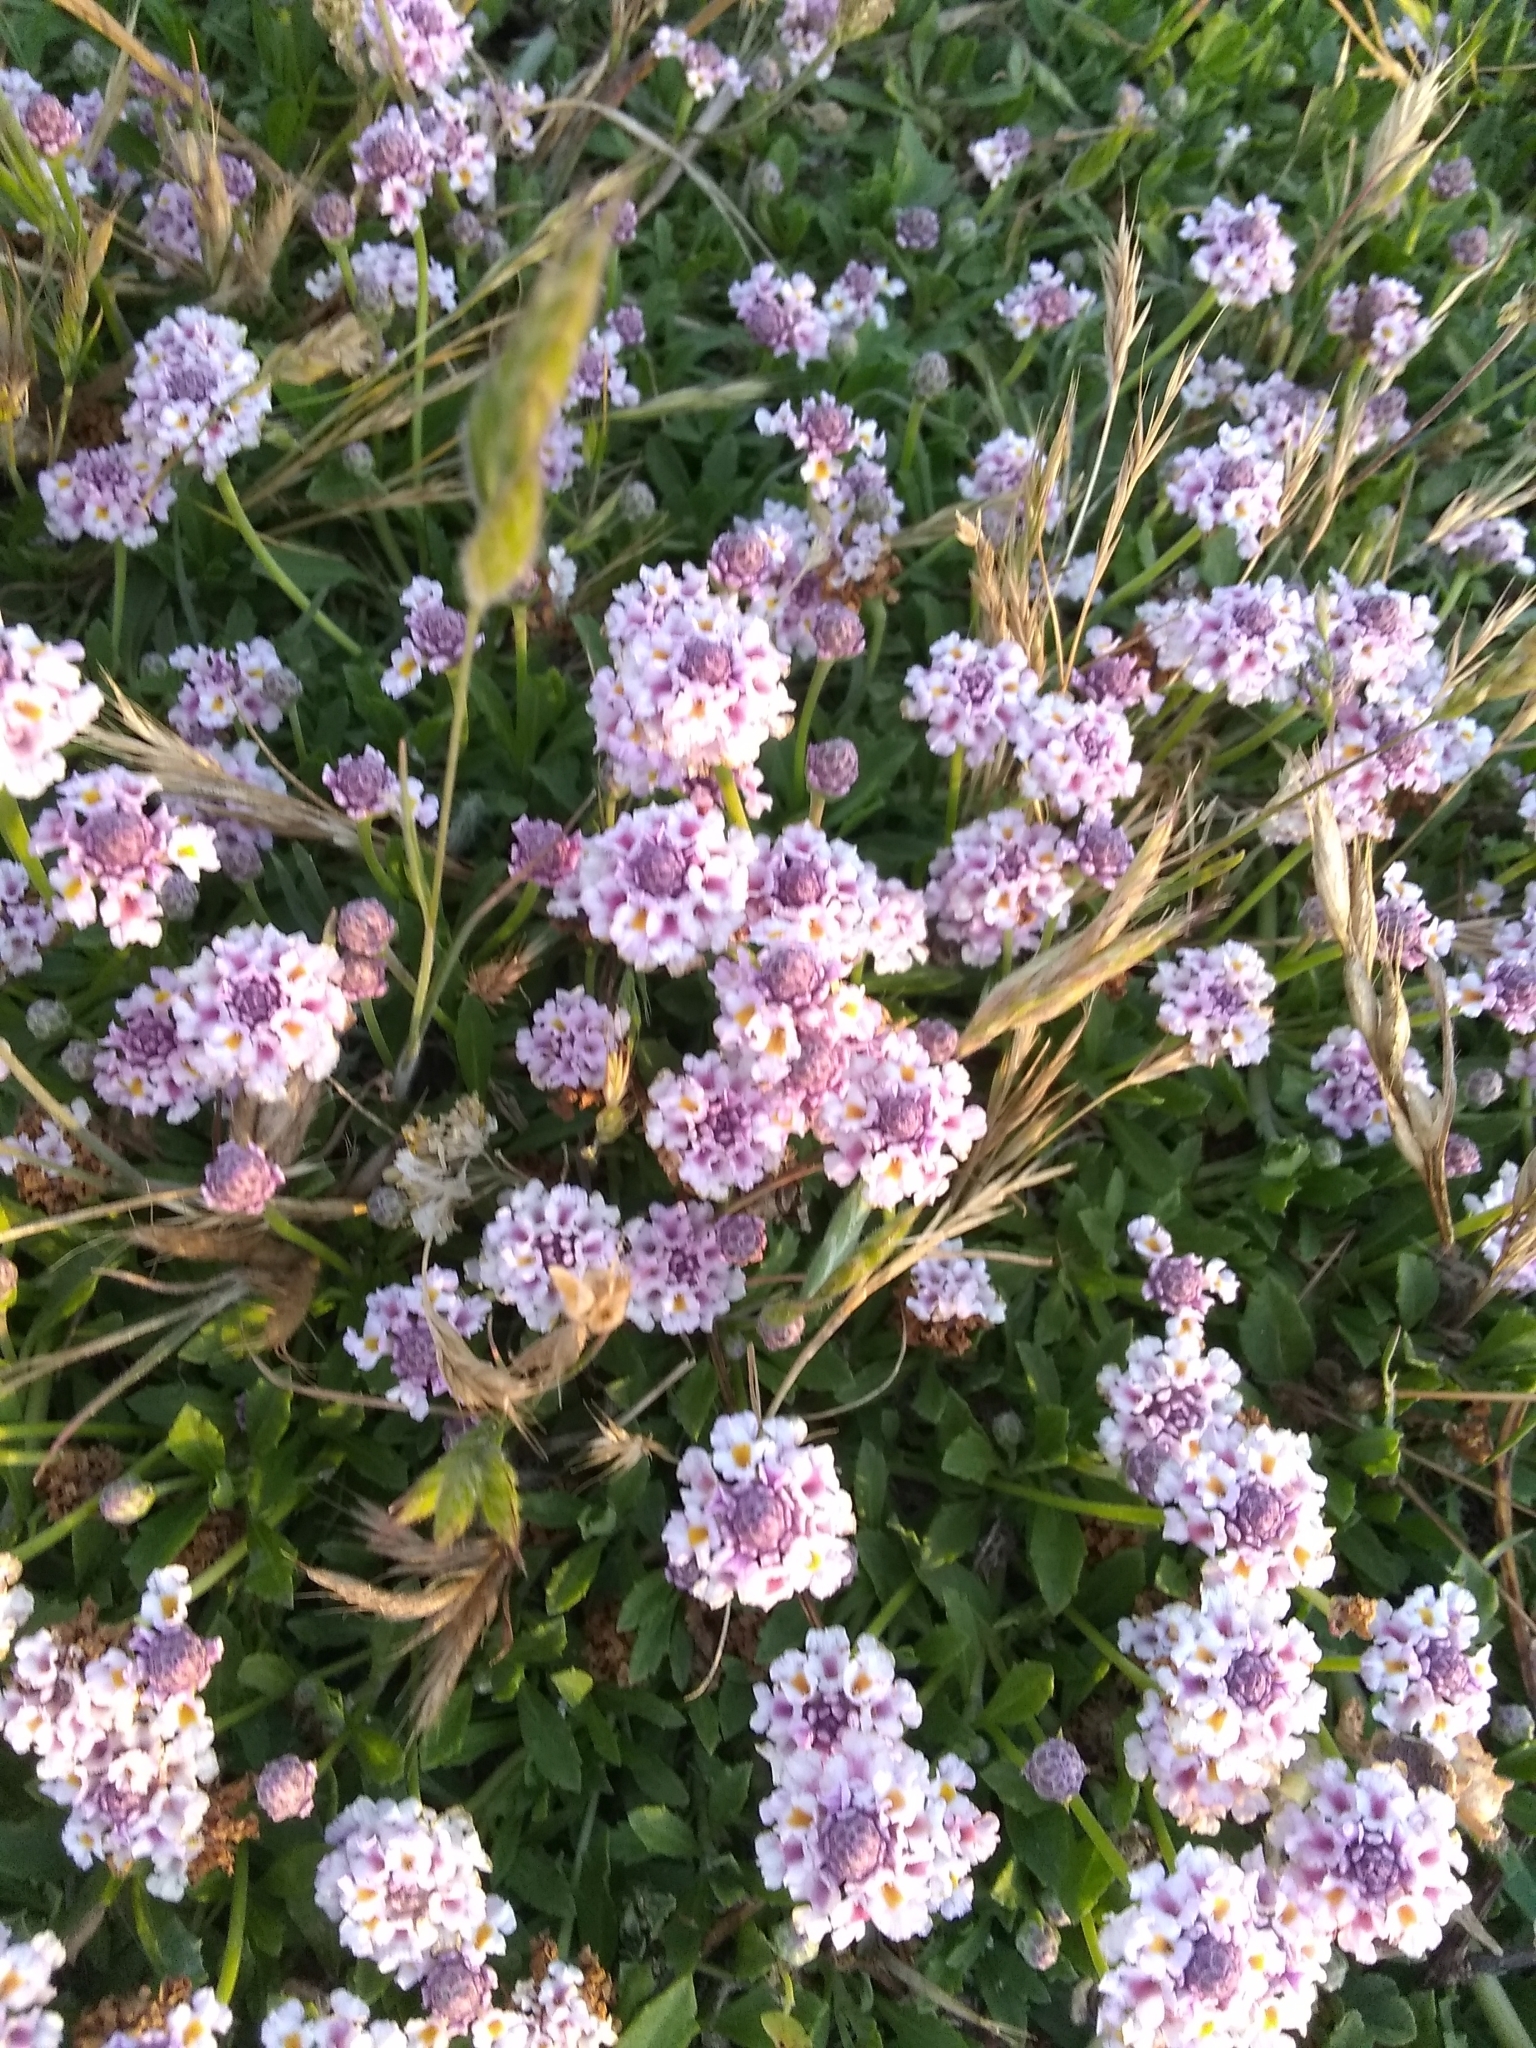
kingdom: Plantae
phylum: Tracheophyta
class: Magnoliopsida
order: Lamiales
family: Verbenaceae
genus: Phyla
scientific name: Phyla nodiflora
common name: Frogfruit
